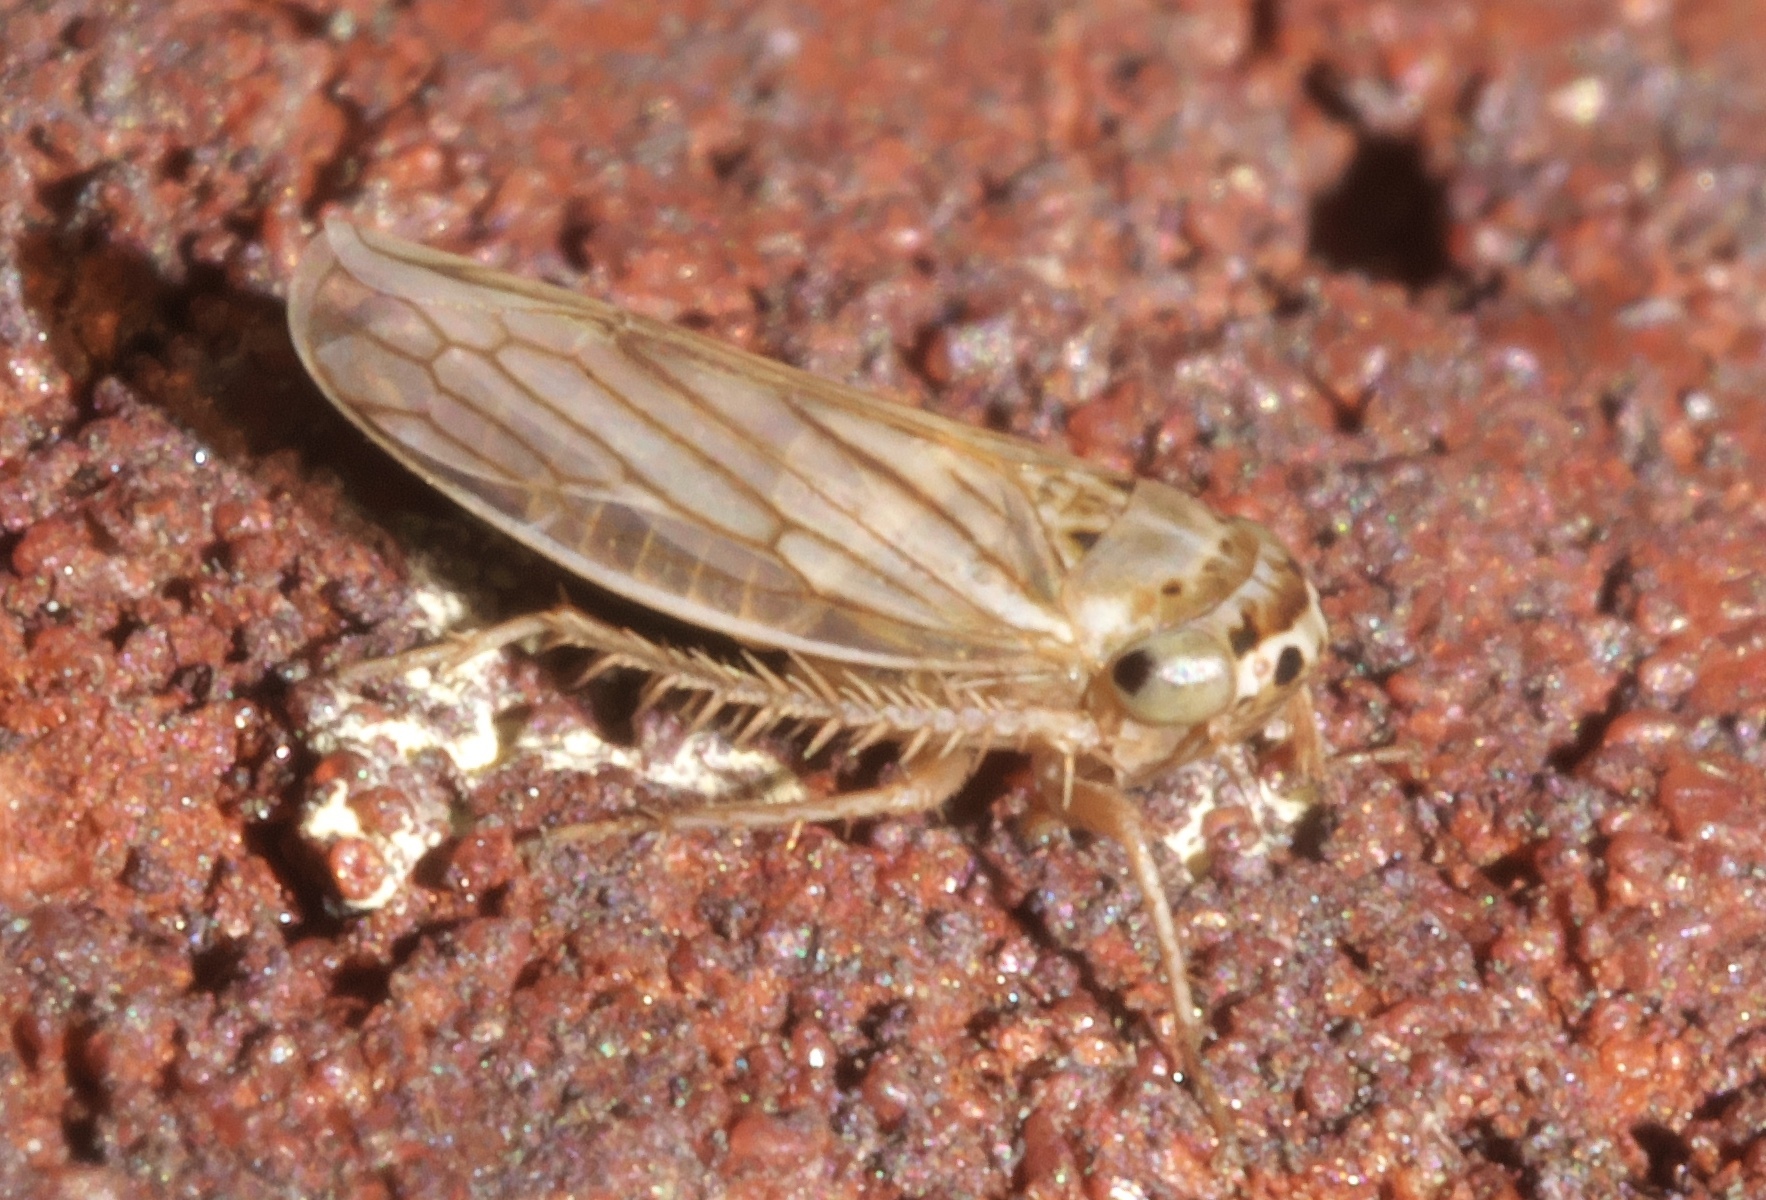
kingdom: Animalia
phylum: Arthropoda
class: Insecta
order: Hemiptera
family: Cicadellidae
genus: Exitianus
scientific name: Exitianus exitiosus
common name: Gray lawn leafhopper
